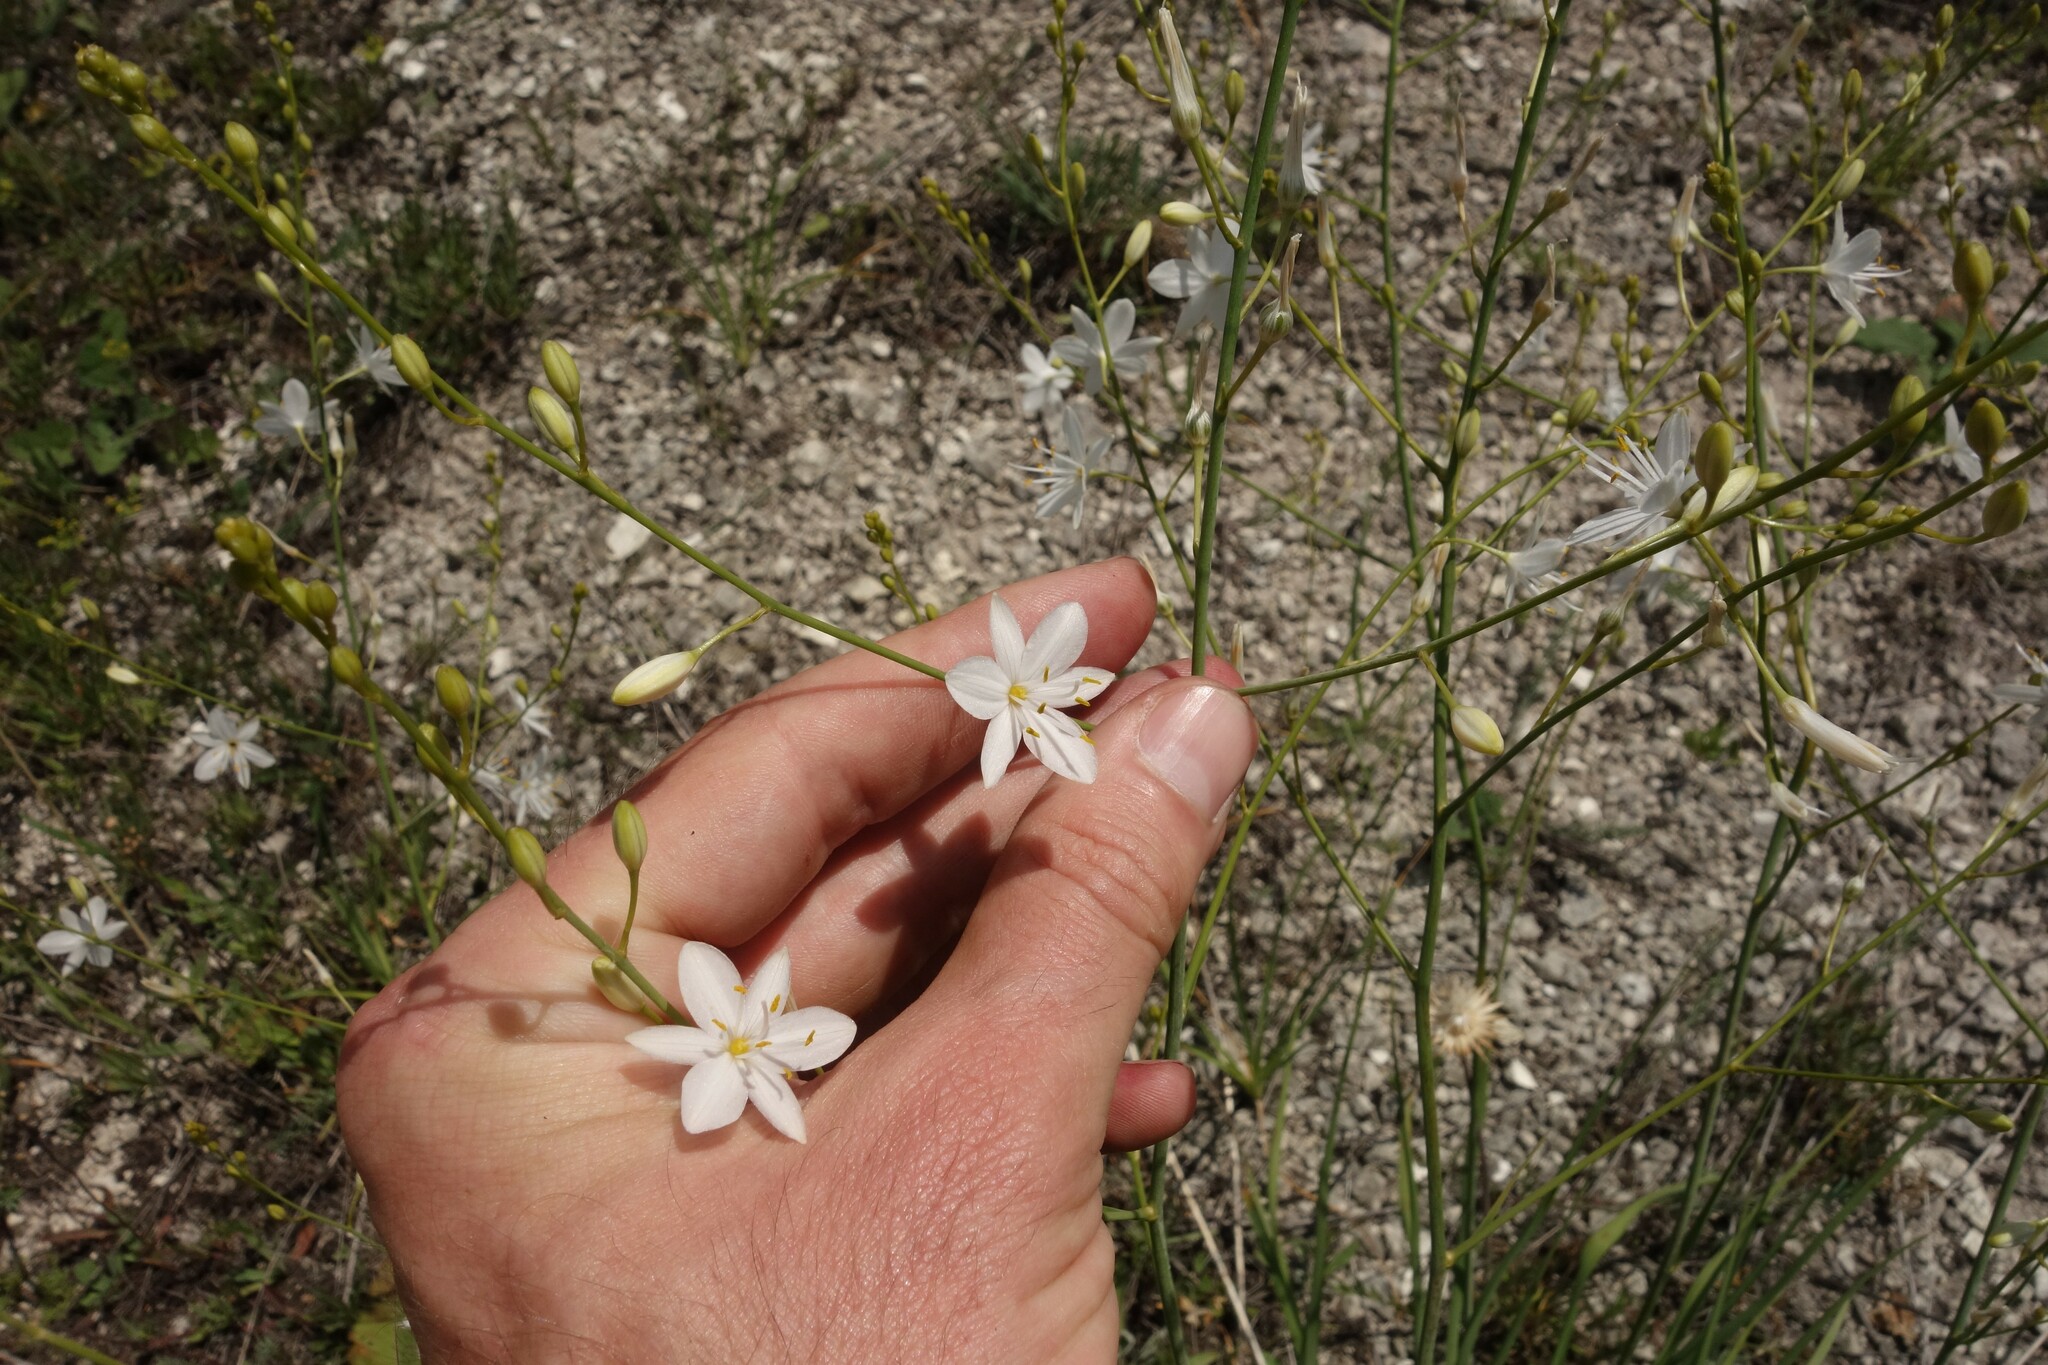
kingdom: Plantae
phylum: Tracheophyta
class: Liliopsida
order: Asparagales
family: Asparagaceae
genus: Anthericum
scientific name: Anthericum ramosum
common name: Branched st. bernard's-lily
